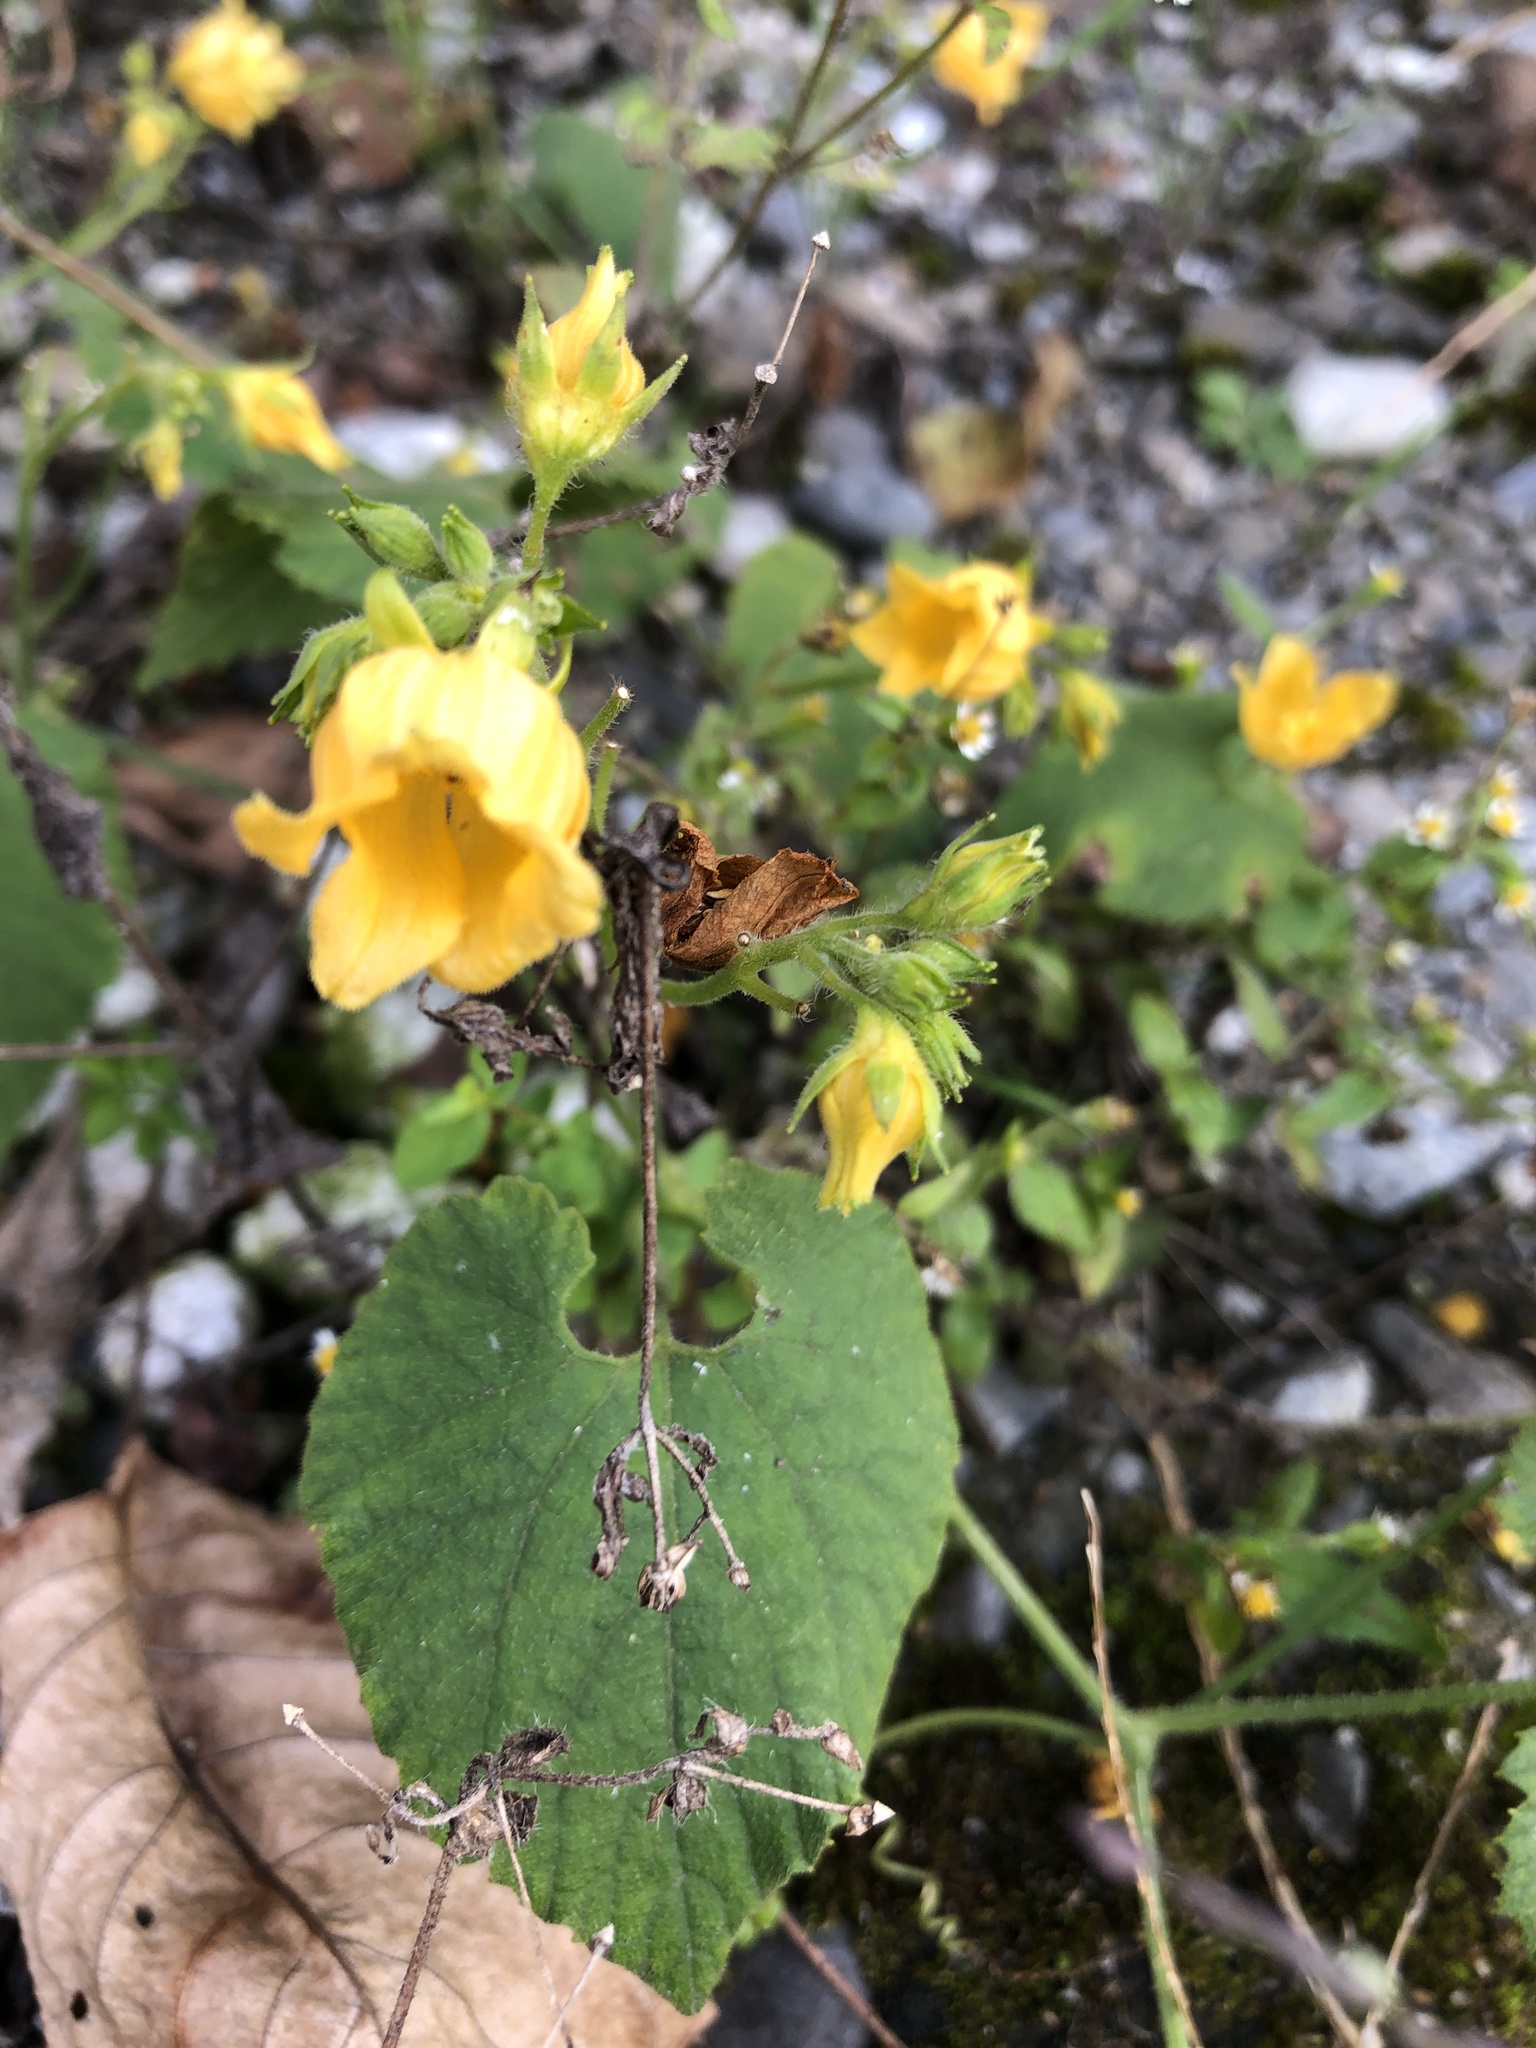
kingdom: Plantae
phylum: Tracheophyta
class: Magnoliopsida
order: Cucurbitales
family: Cucurbitaceae
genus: Thladiantha
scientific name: Thladiantha nudiflora
